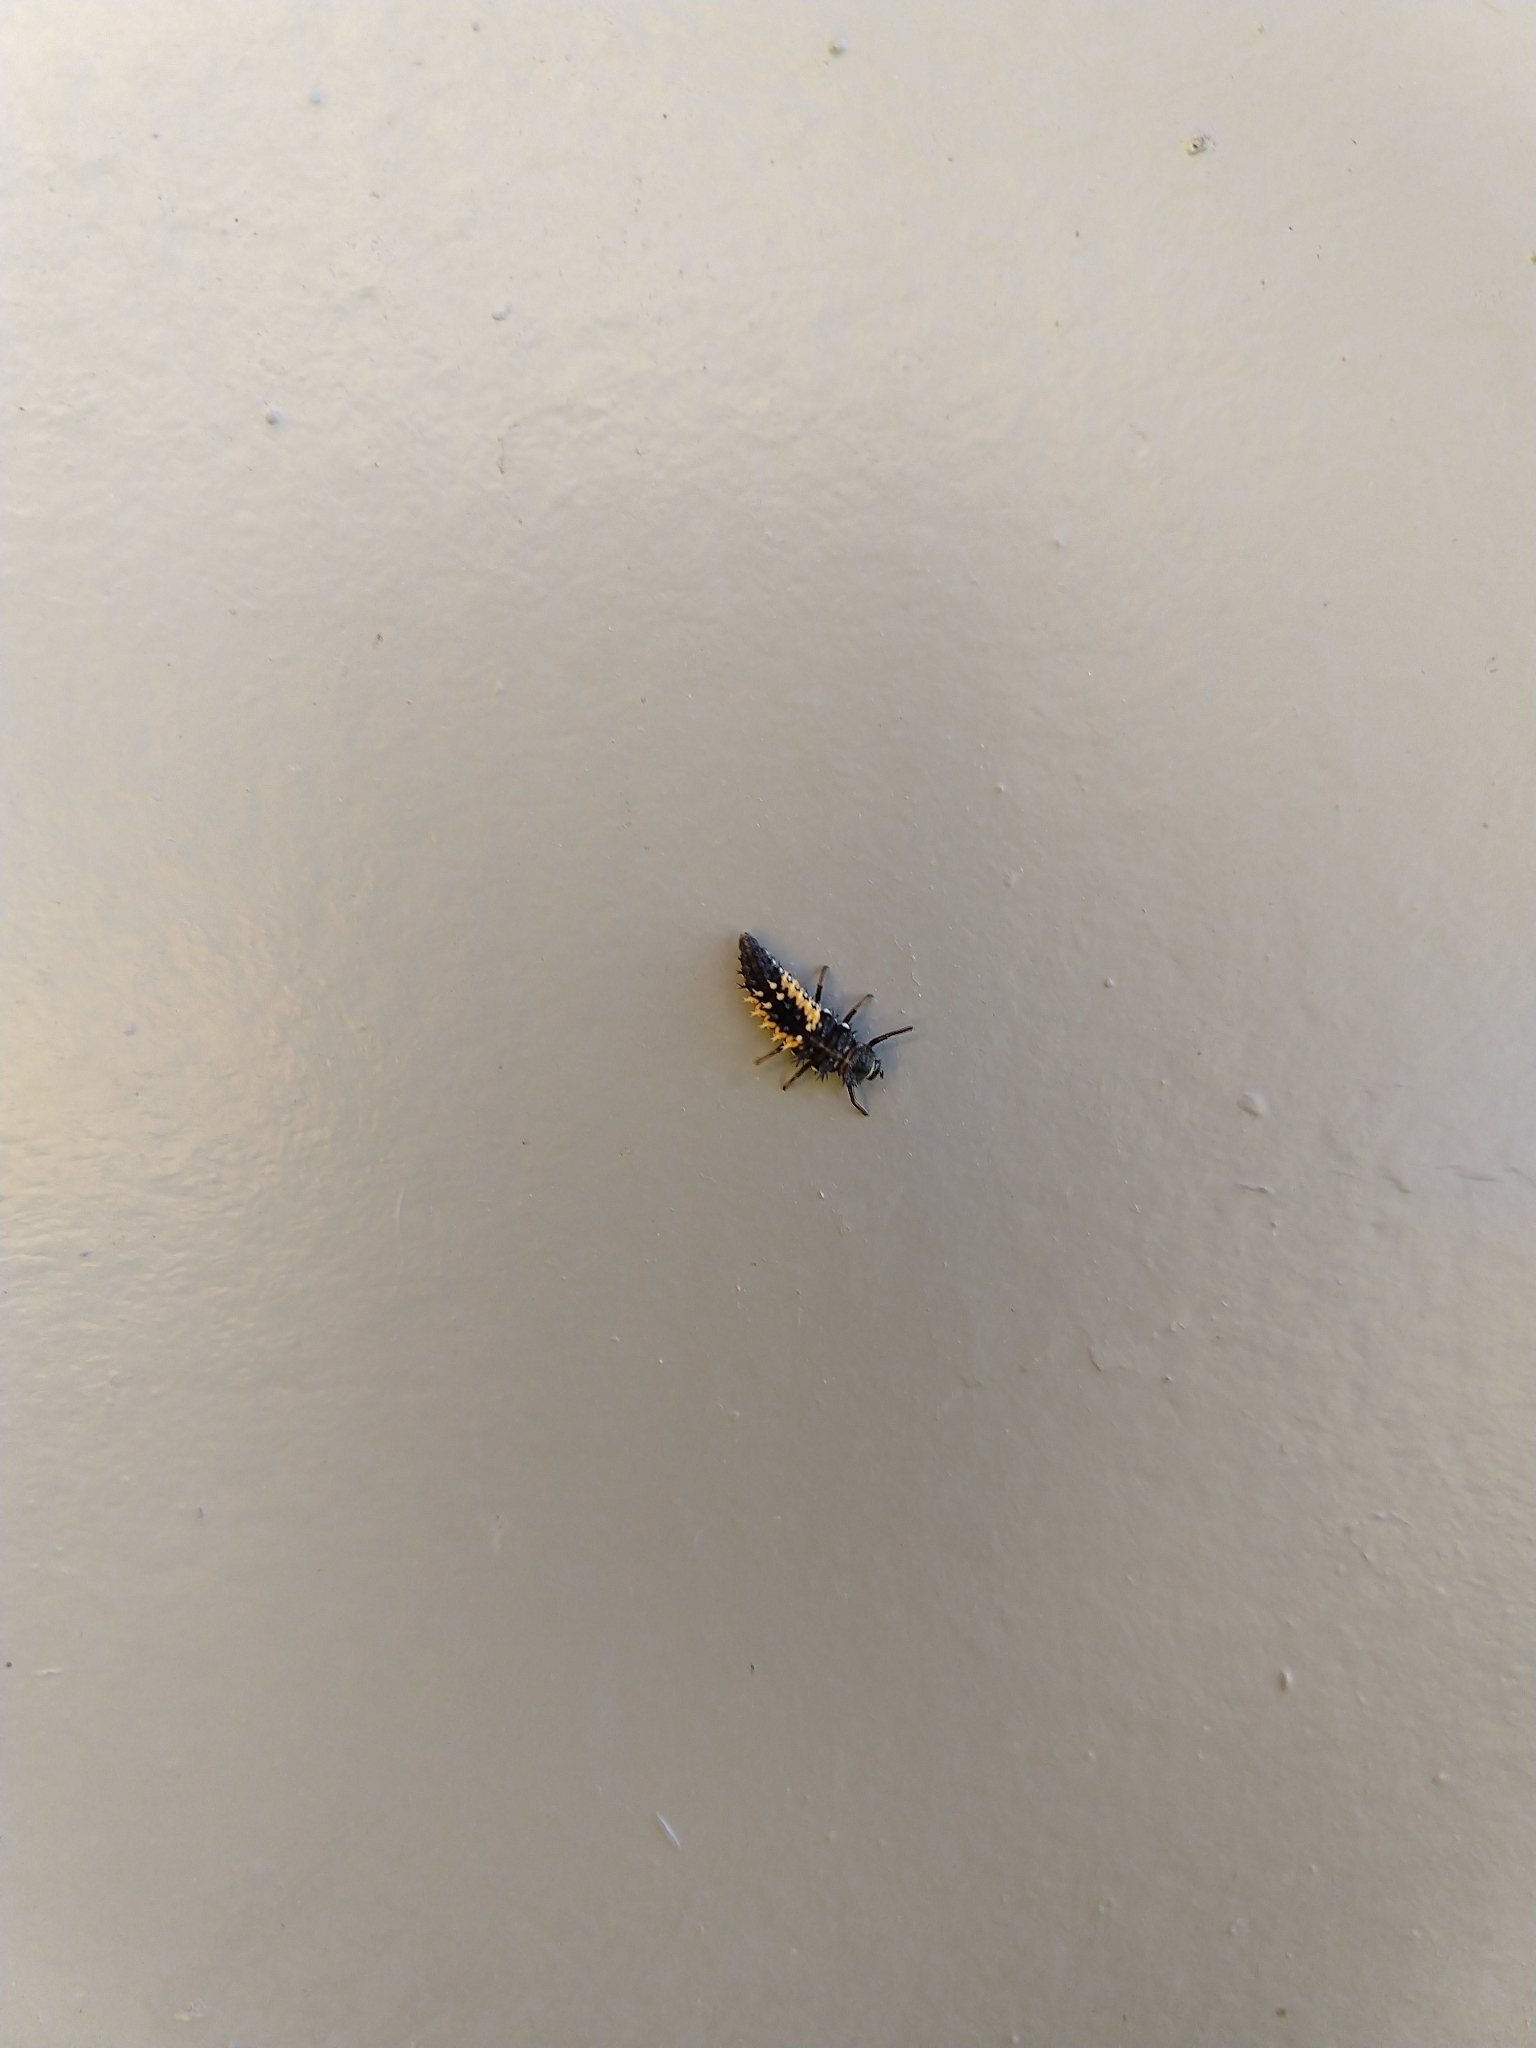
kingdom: Animalia
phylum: Arthropoda
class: Insecta
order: Coleoptera
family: Coccinellidae
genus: Harmonia
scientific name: Harmonia axyridis
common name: Harlequin ladybird
